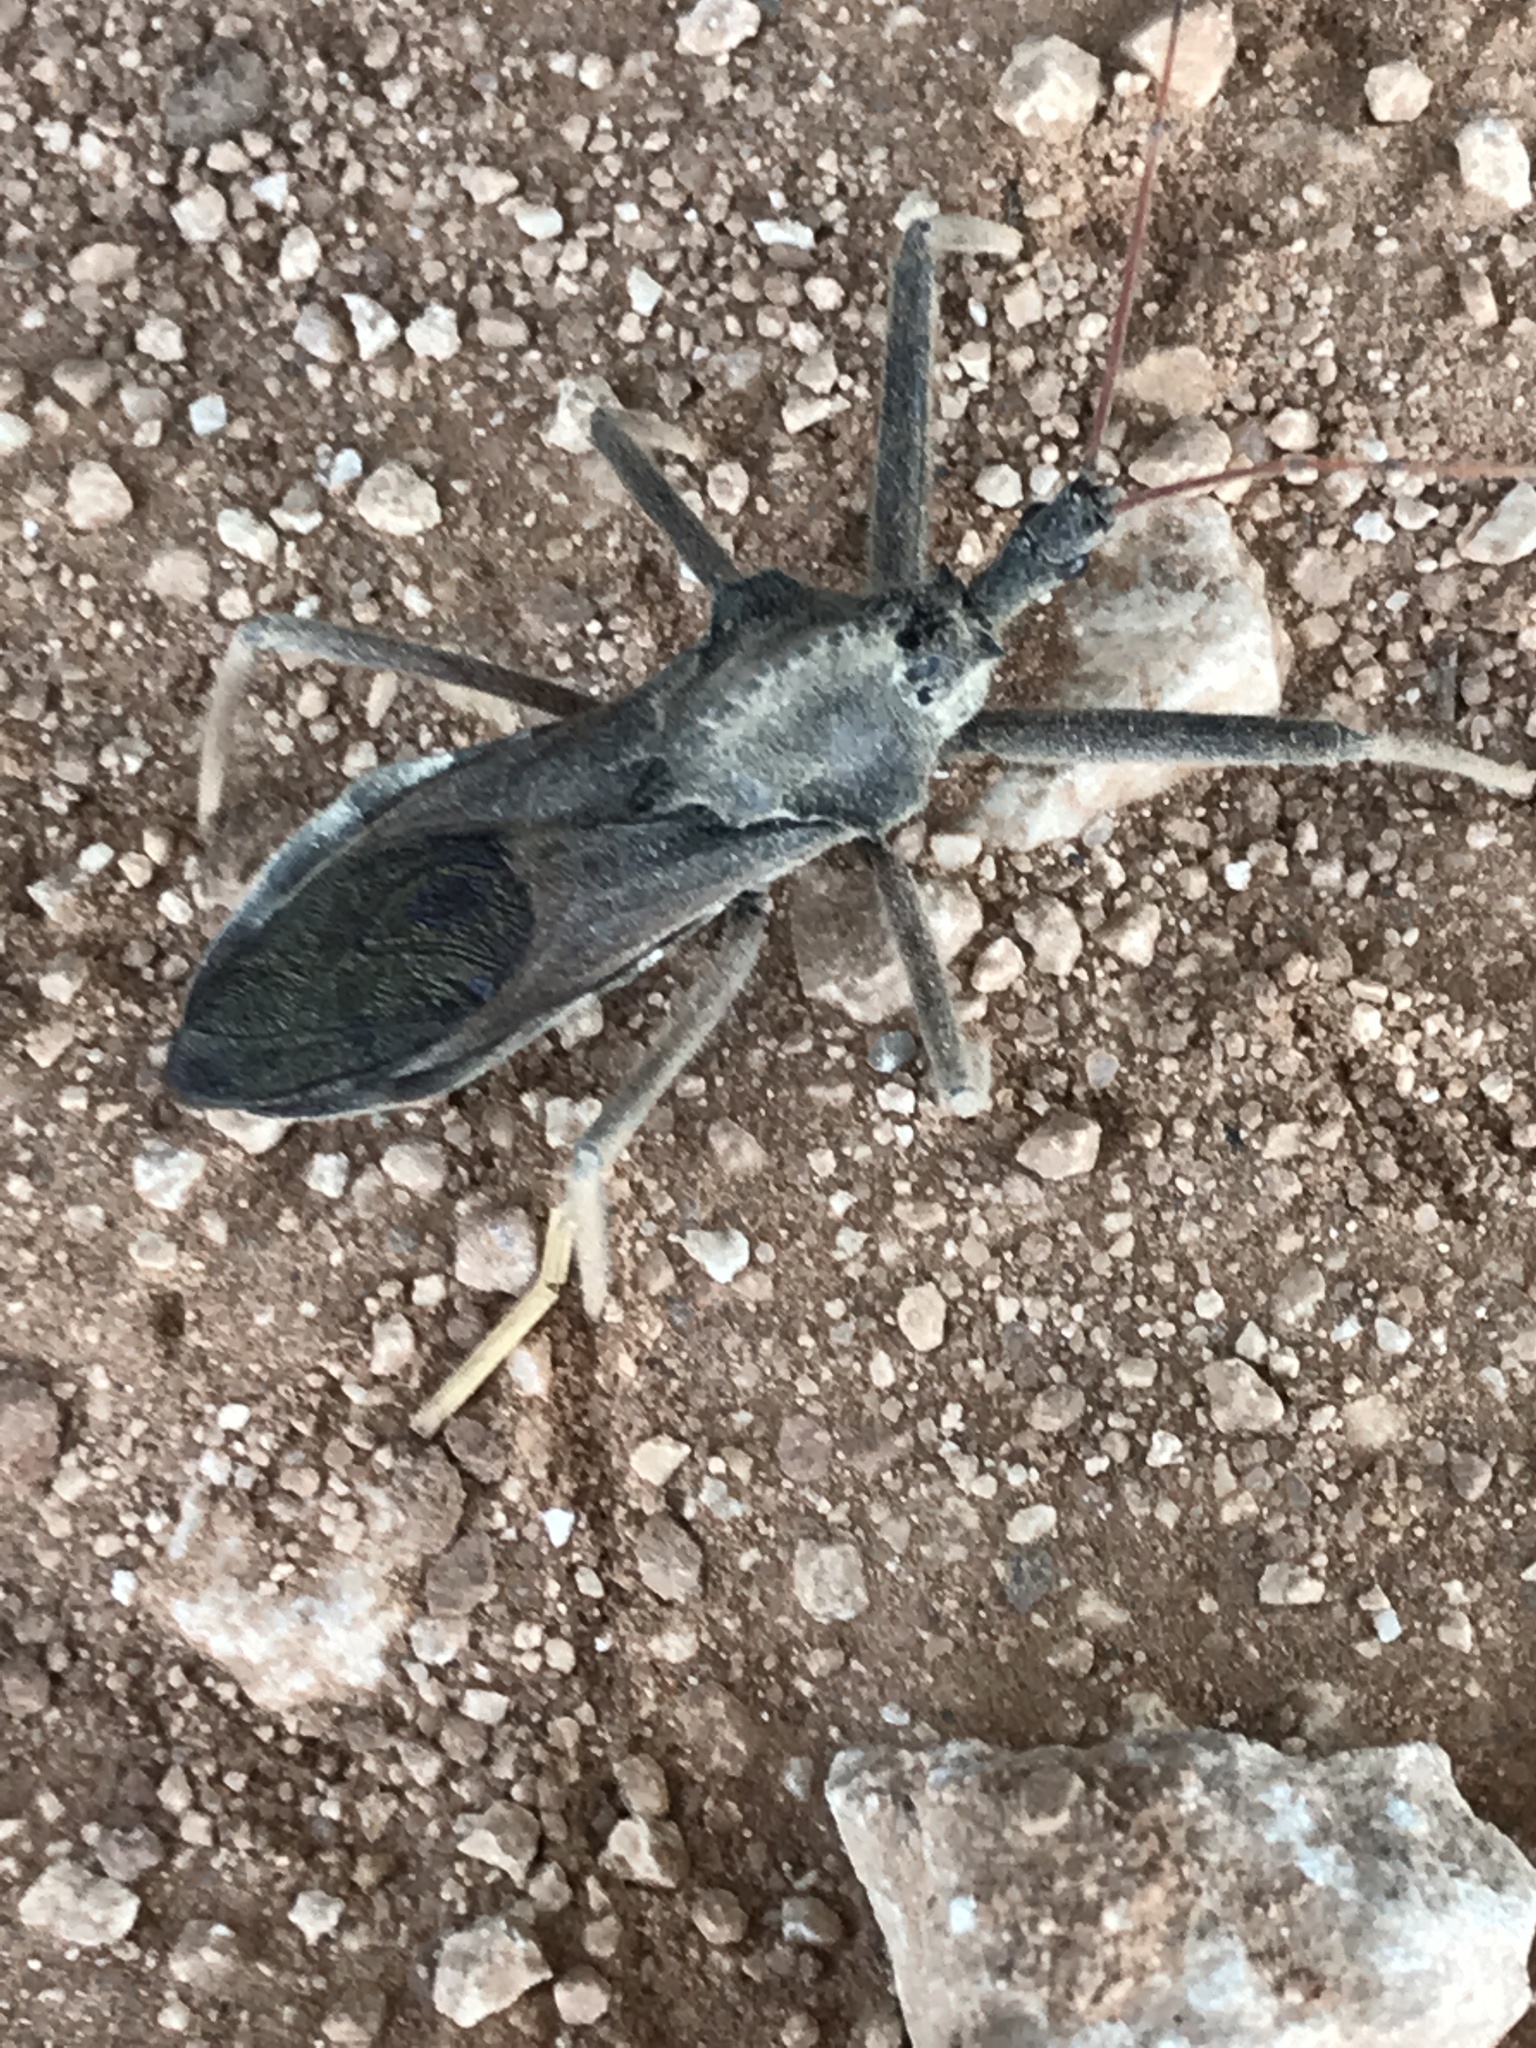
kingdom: Animalia
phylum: Arthropoda
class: Insecta
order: Hemiptera
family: Reduviidae
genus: Arilus
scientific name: Arilus cristatus
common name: North american wheel bug
